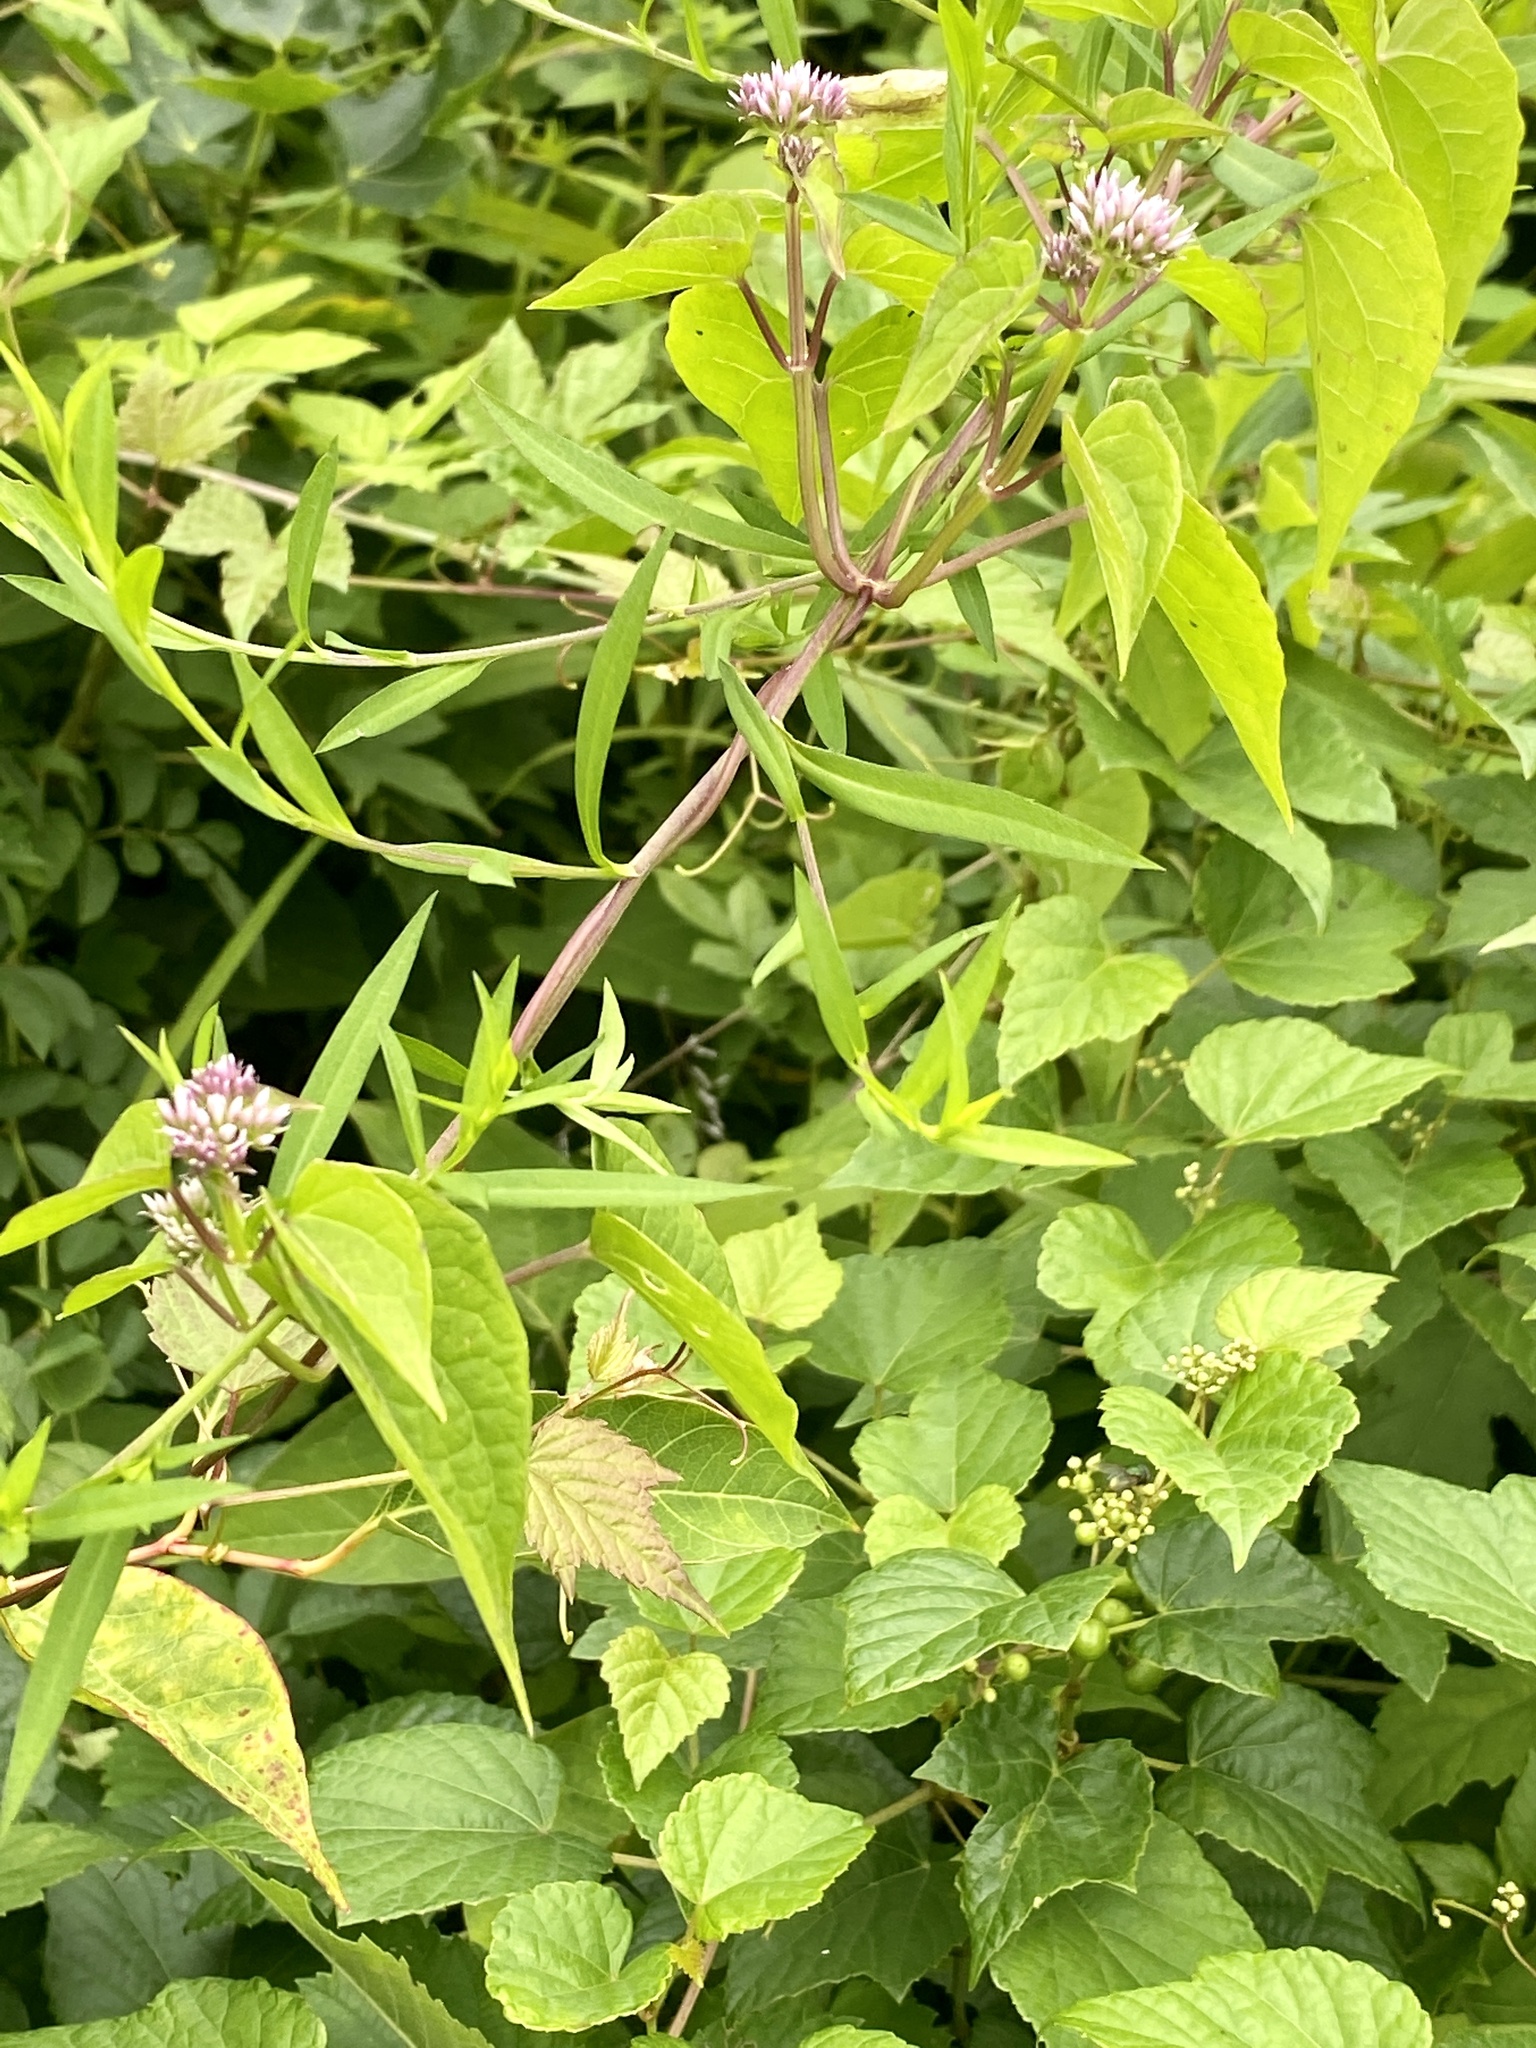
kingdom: Plantae
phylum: Tracheophyta
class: Magnoliopsida
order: Asterales
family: Asteraceae
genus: Mikania
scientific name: Mikania scandens
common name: Climbing hempvine
